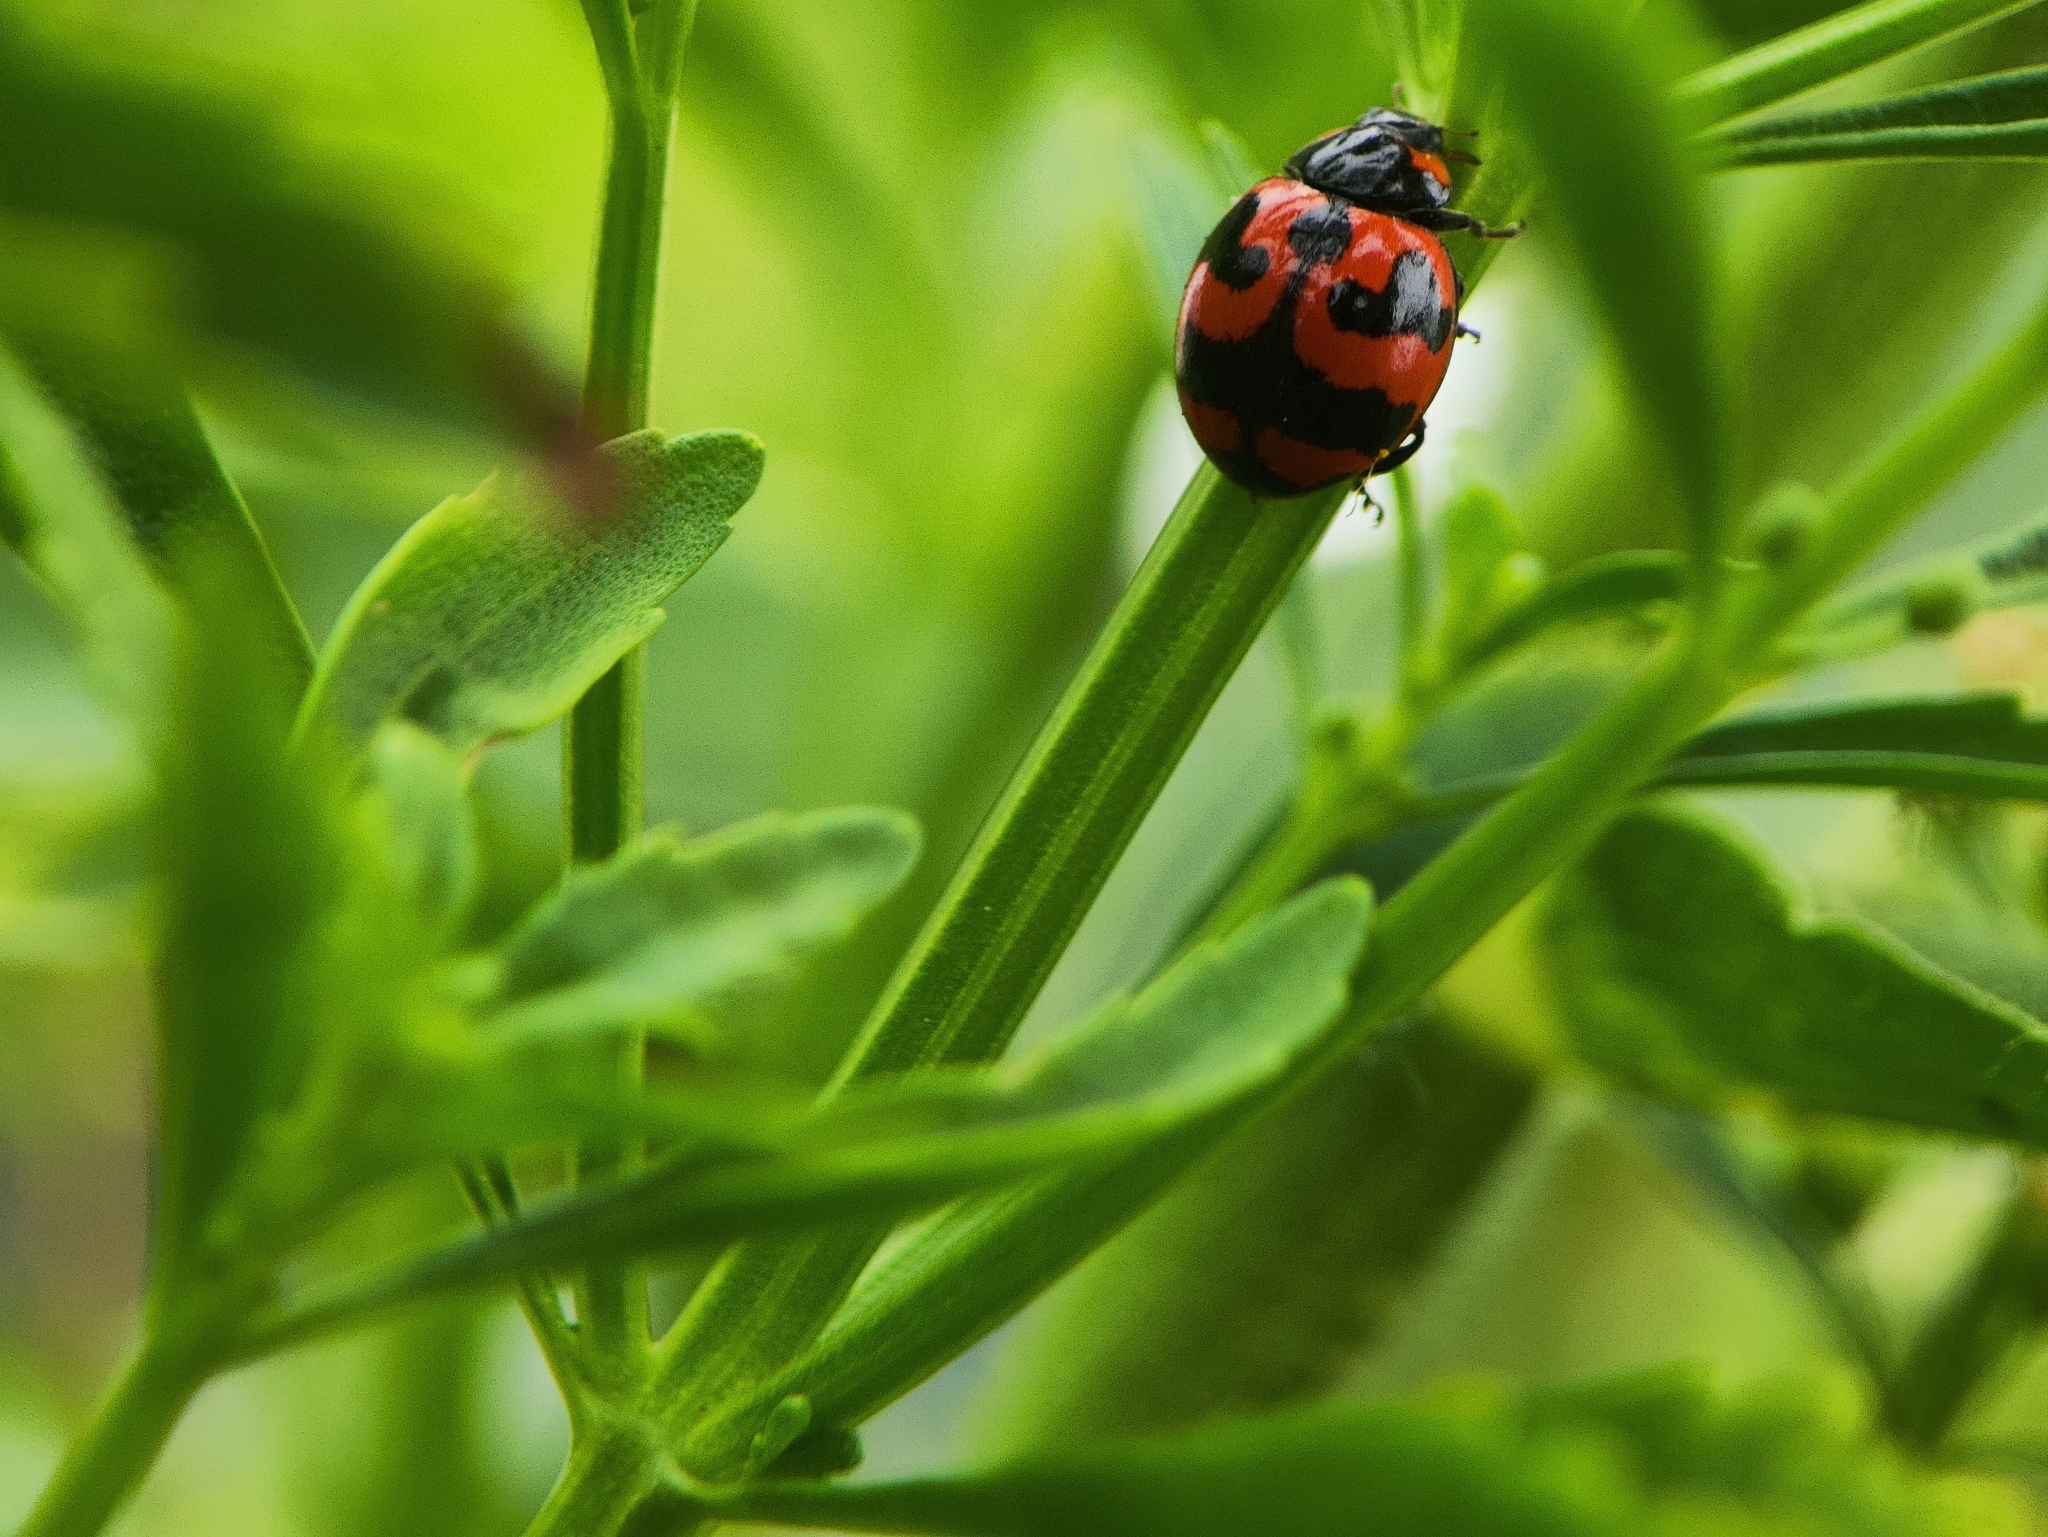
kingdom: Animalia
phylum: Arthropoda
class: Insecta
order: Coleoptera
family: Coccinellidae
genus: Coccinella
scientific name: Coccinella transversalis
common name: Transverse lady beetle
